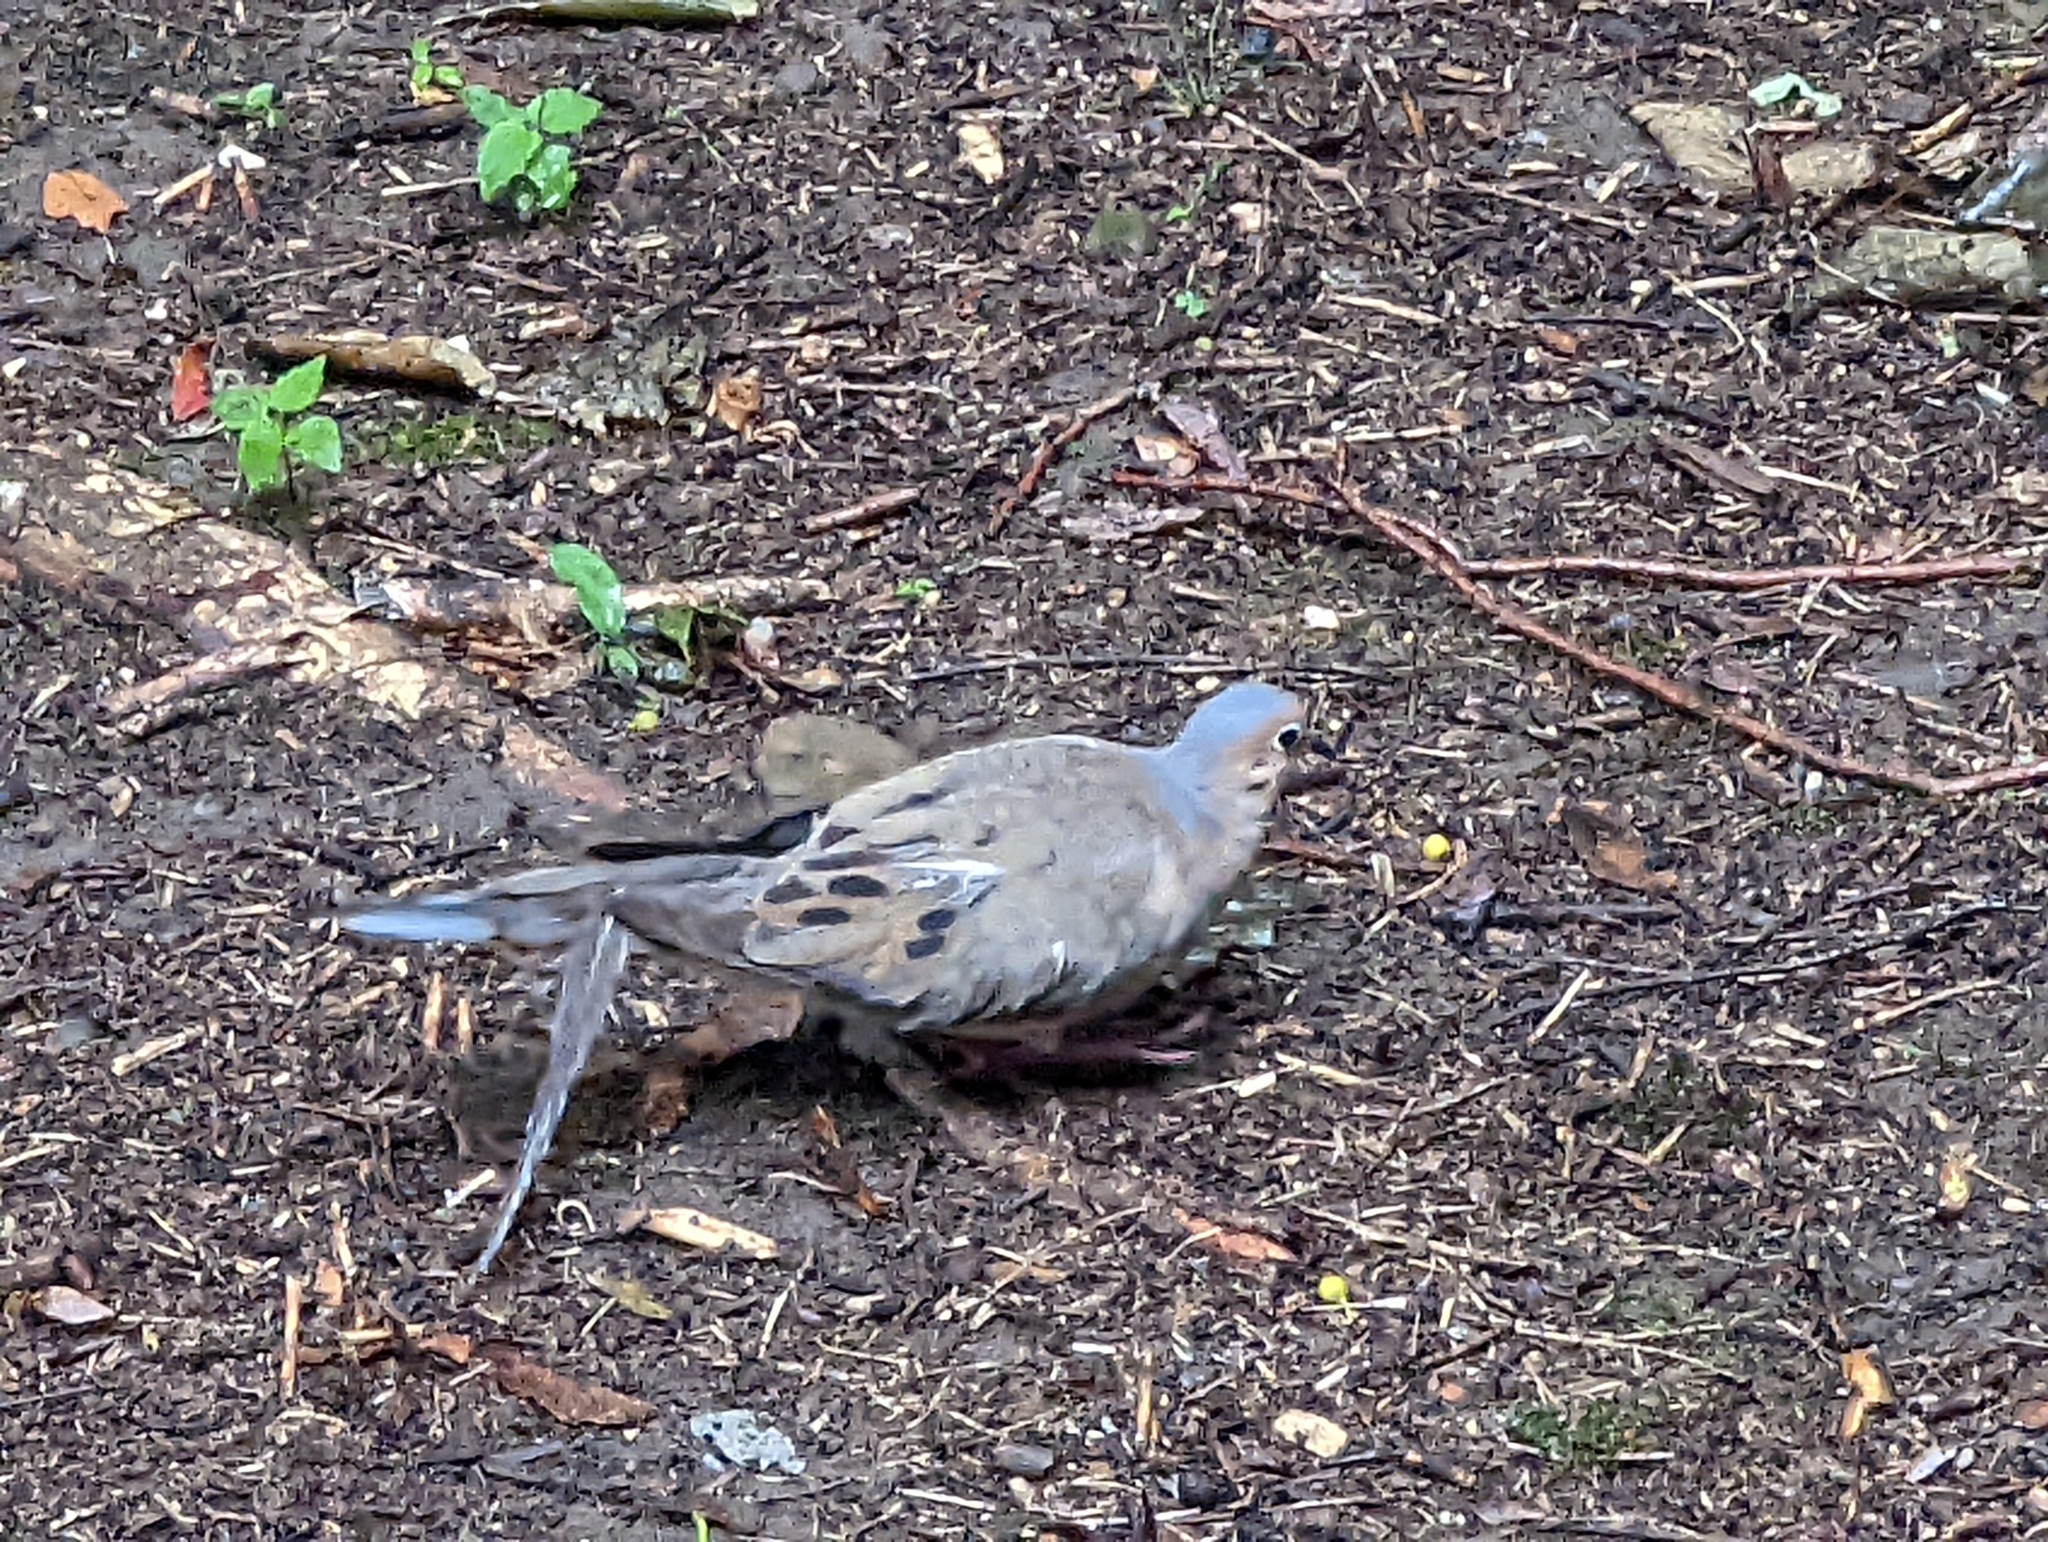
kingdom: Animalia
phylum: Chordata
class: Aves
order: Columbiformes
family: Columbidae
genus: Zenaida
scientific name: Zenaida macroura
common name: Mourning dove
